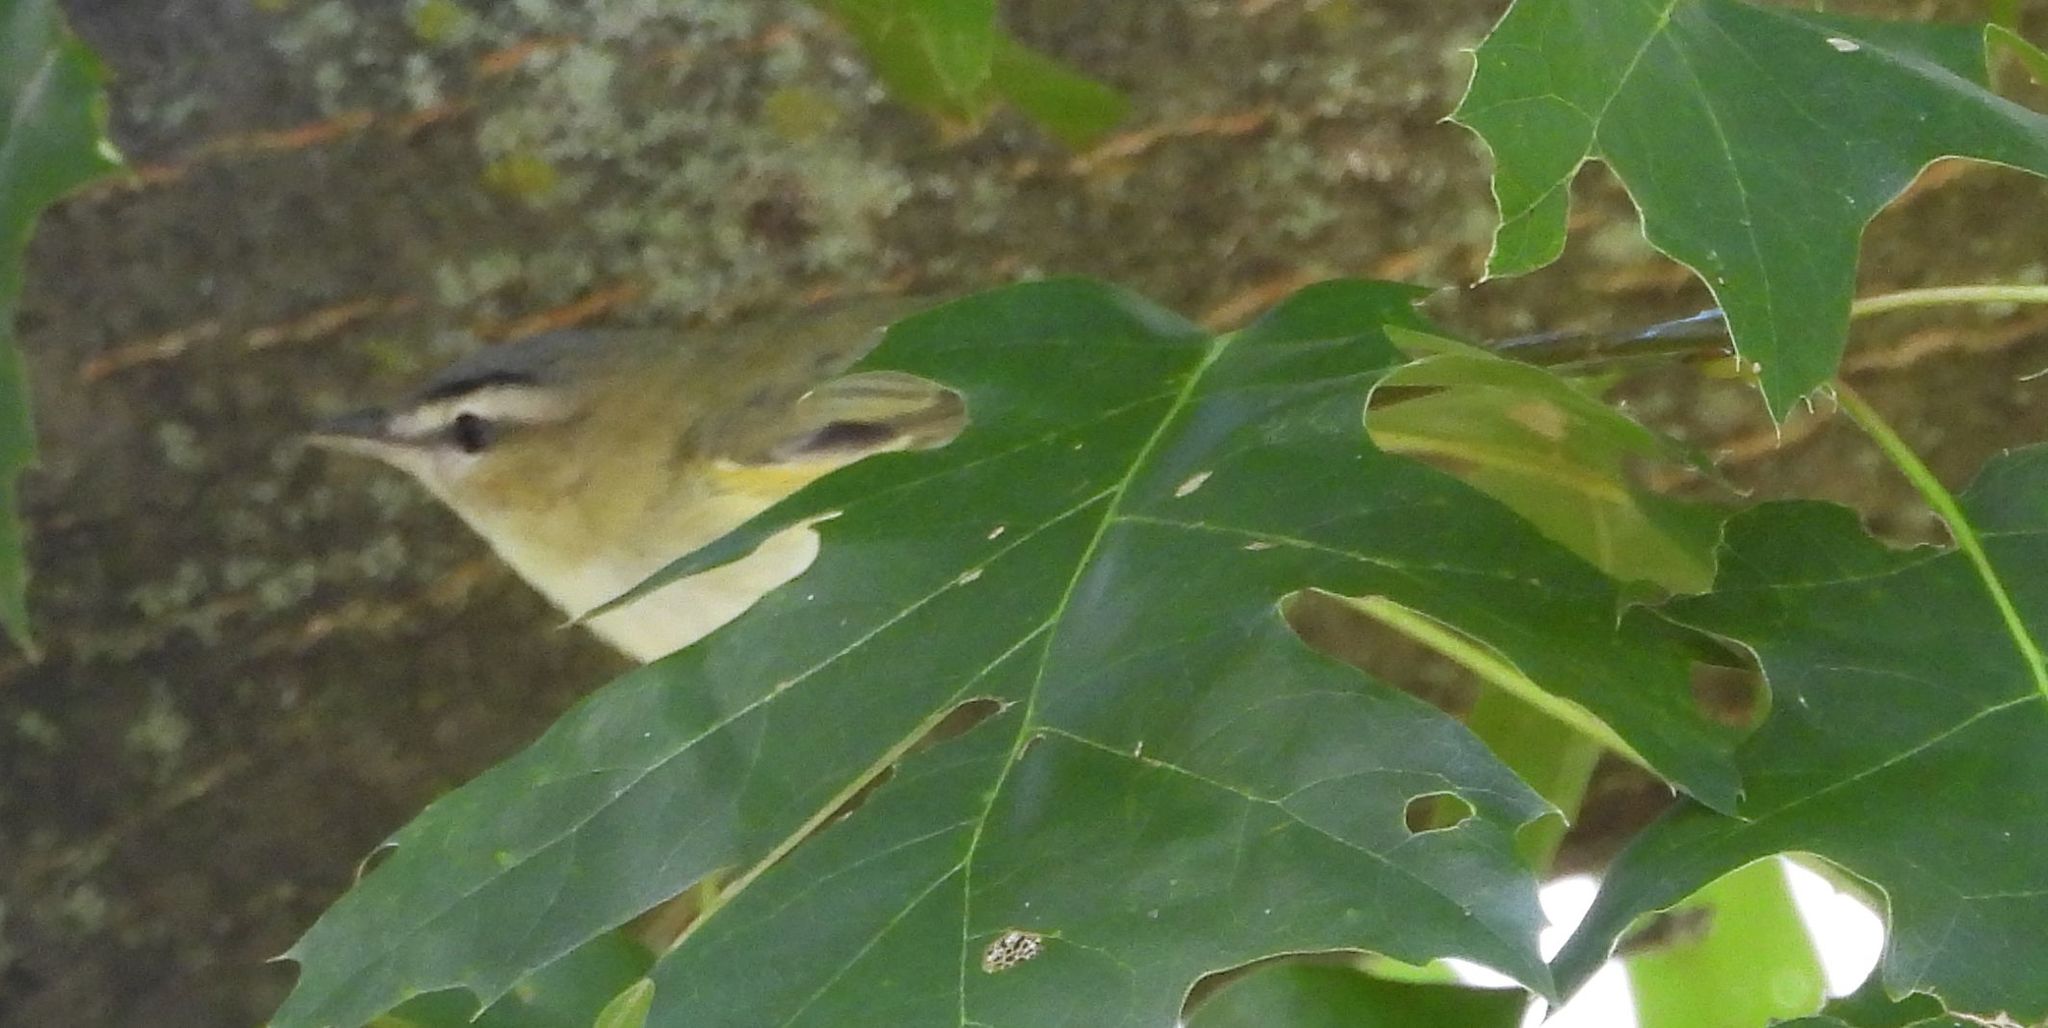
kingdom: Animalia
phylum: Chordata
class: Aves
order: Passeriformes
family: Vireonidae
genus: Vireo
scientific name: Vireo olivaceus
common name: Red-eyed vireo
